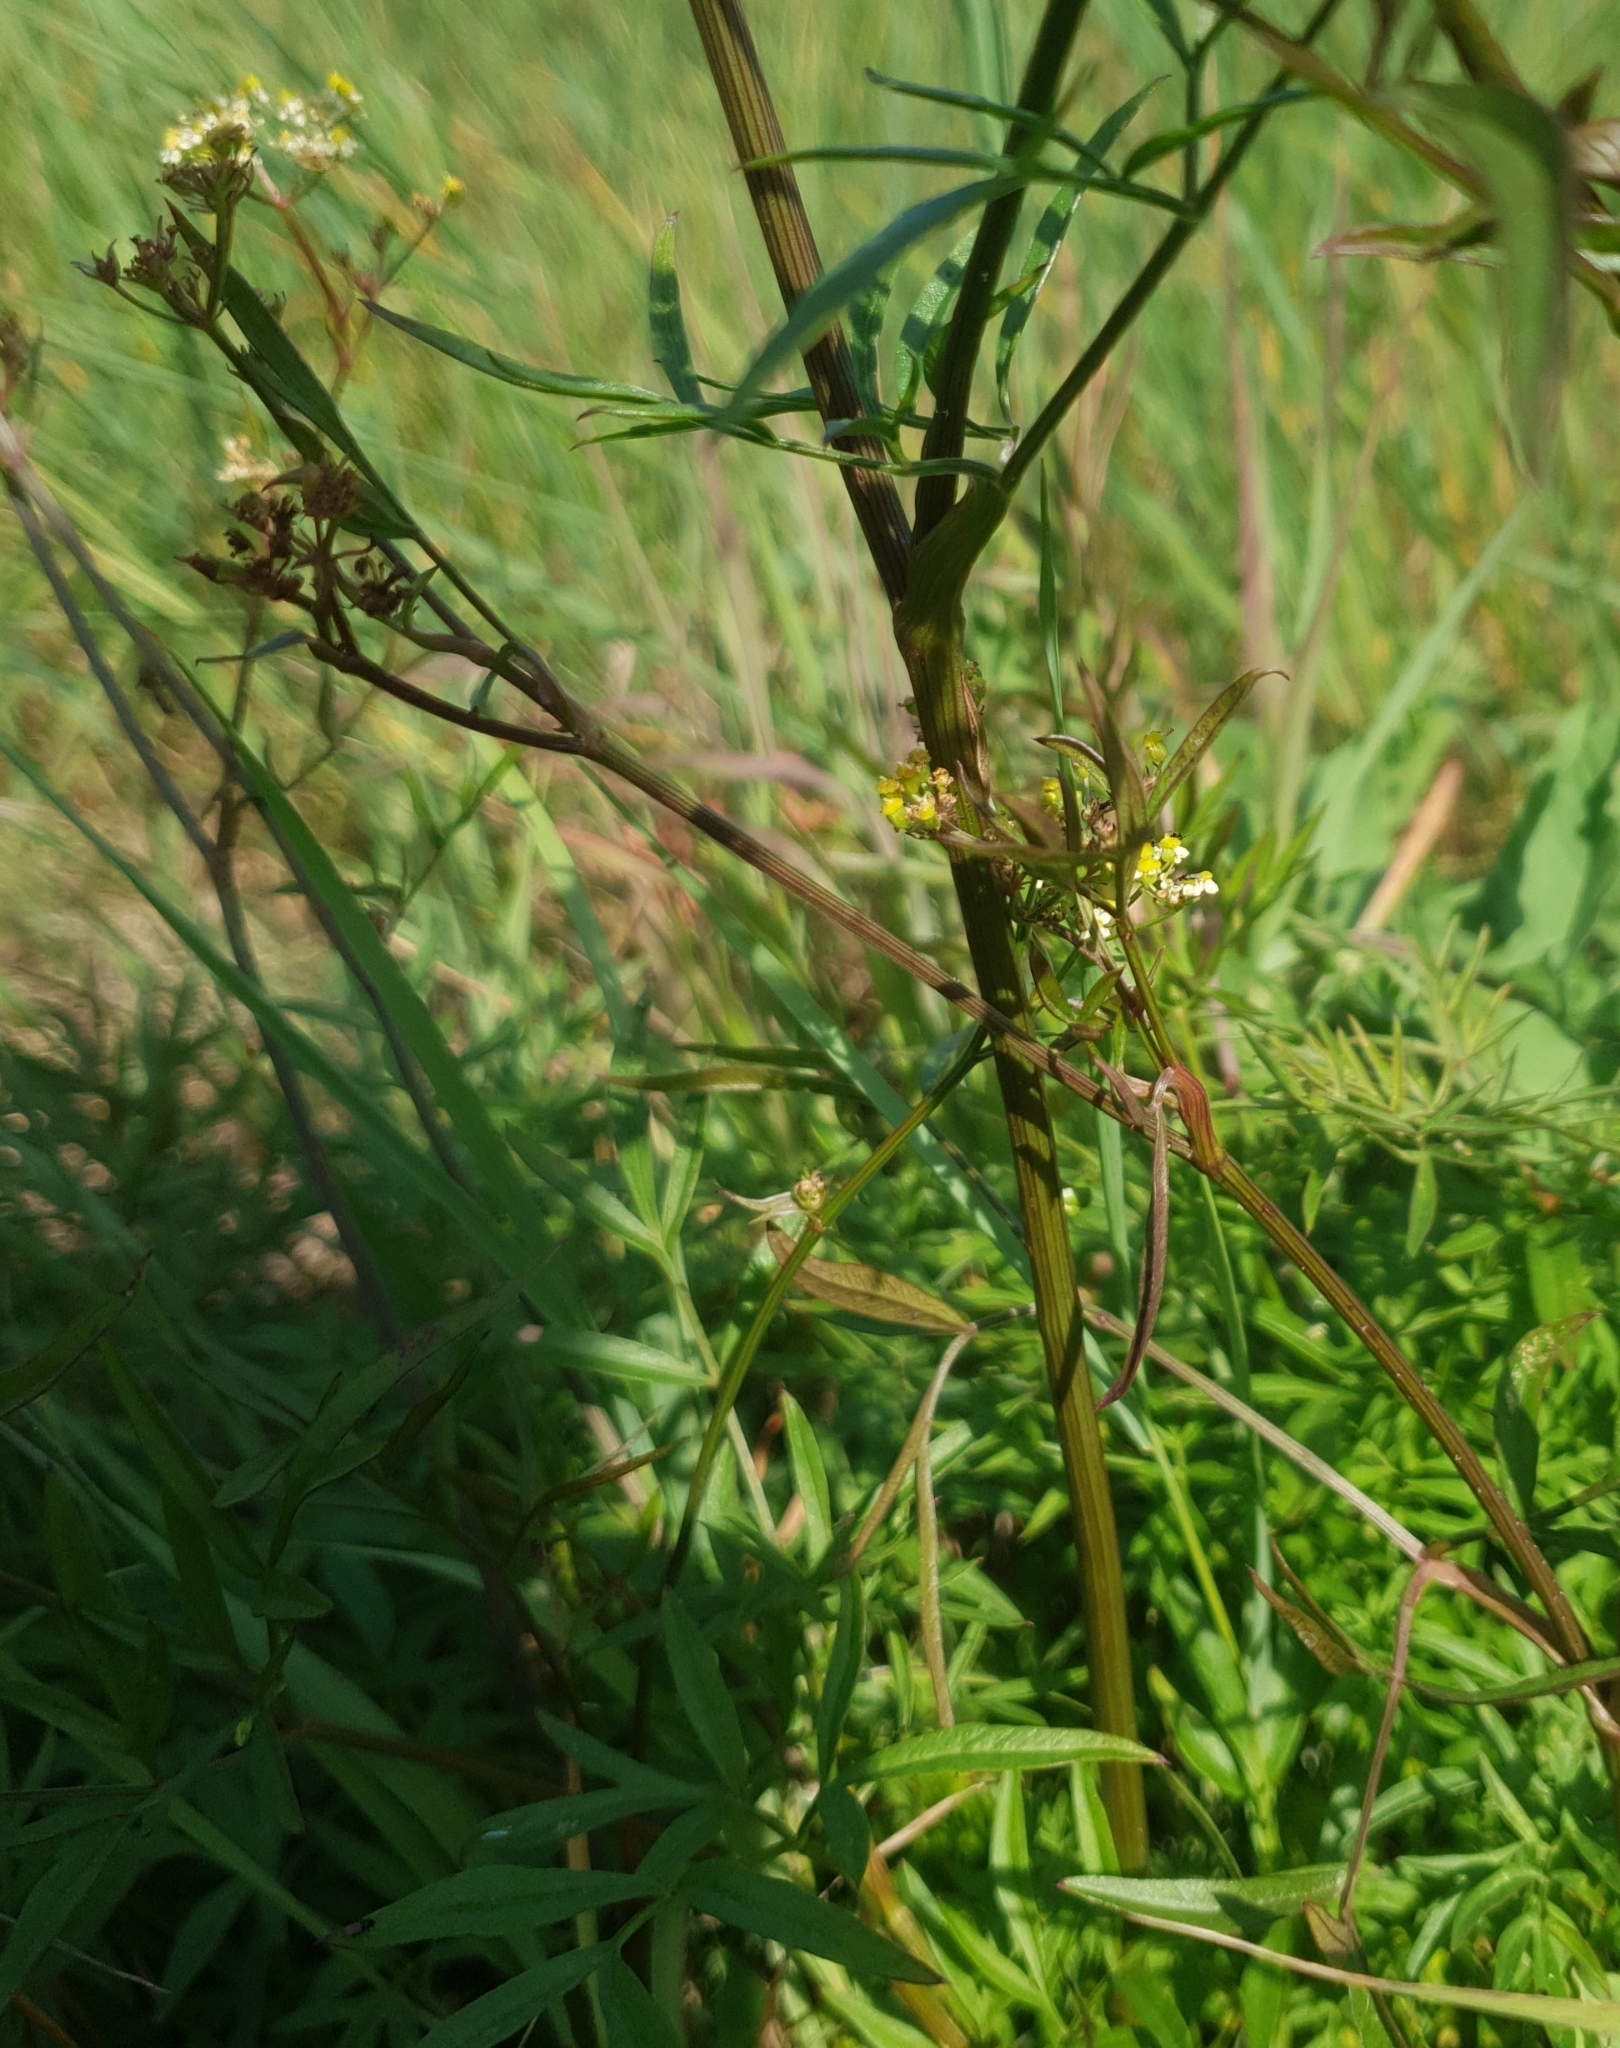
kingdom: Plantae
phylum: Tracheophyta
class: Magnoliopsida
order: Apiales
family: Apiaceae
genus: Silaum
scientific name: Silaum silaus
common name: Pepper-saxifrage
